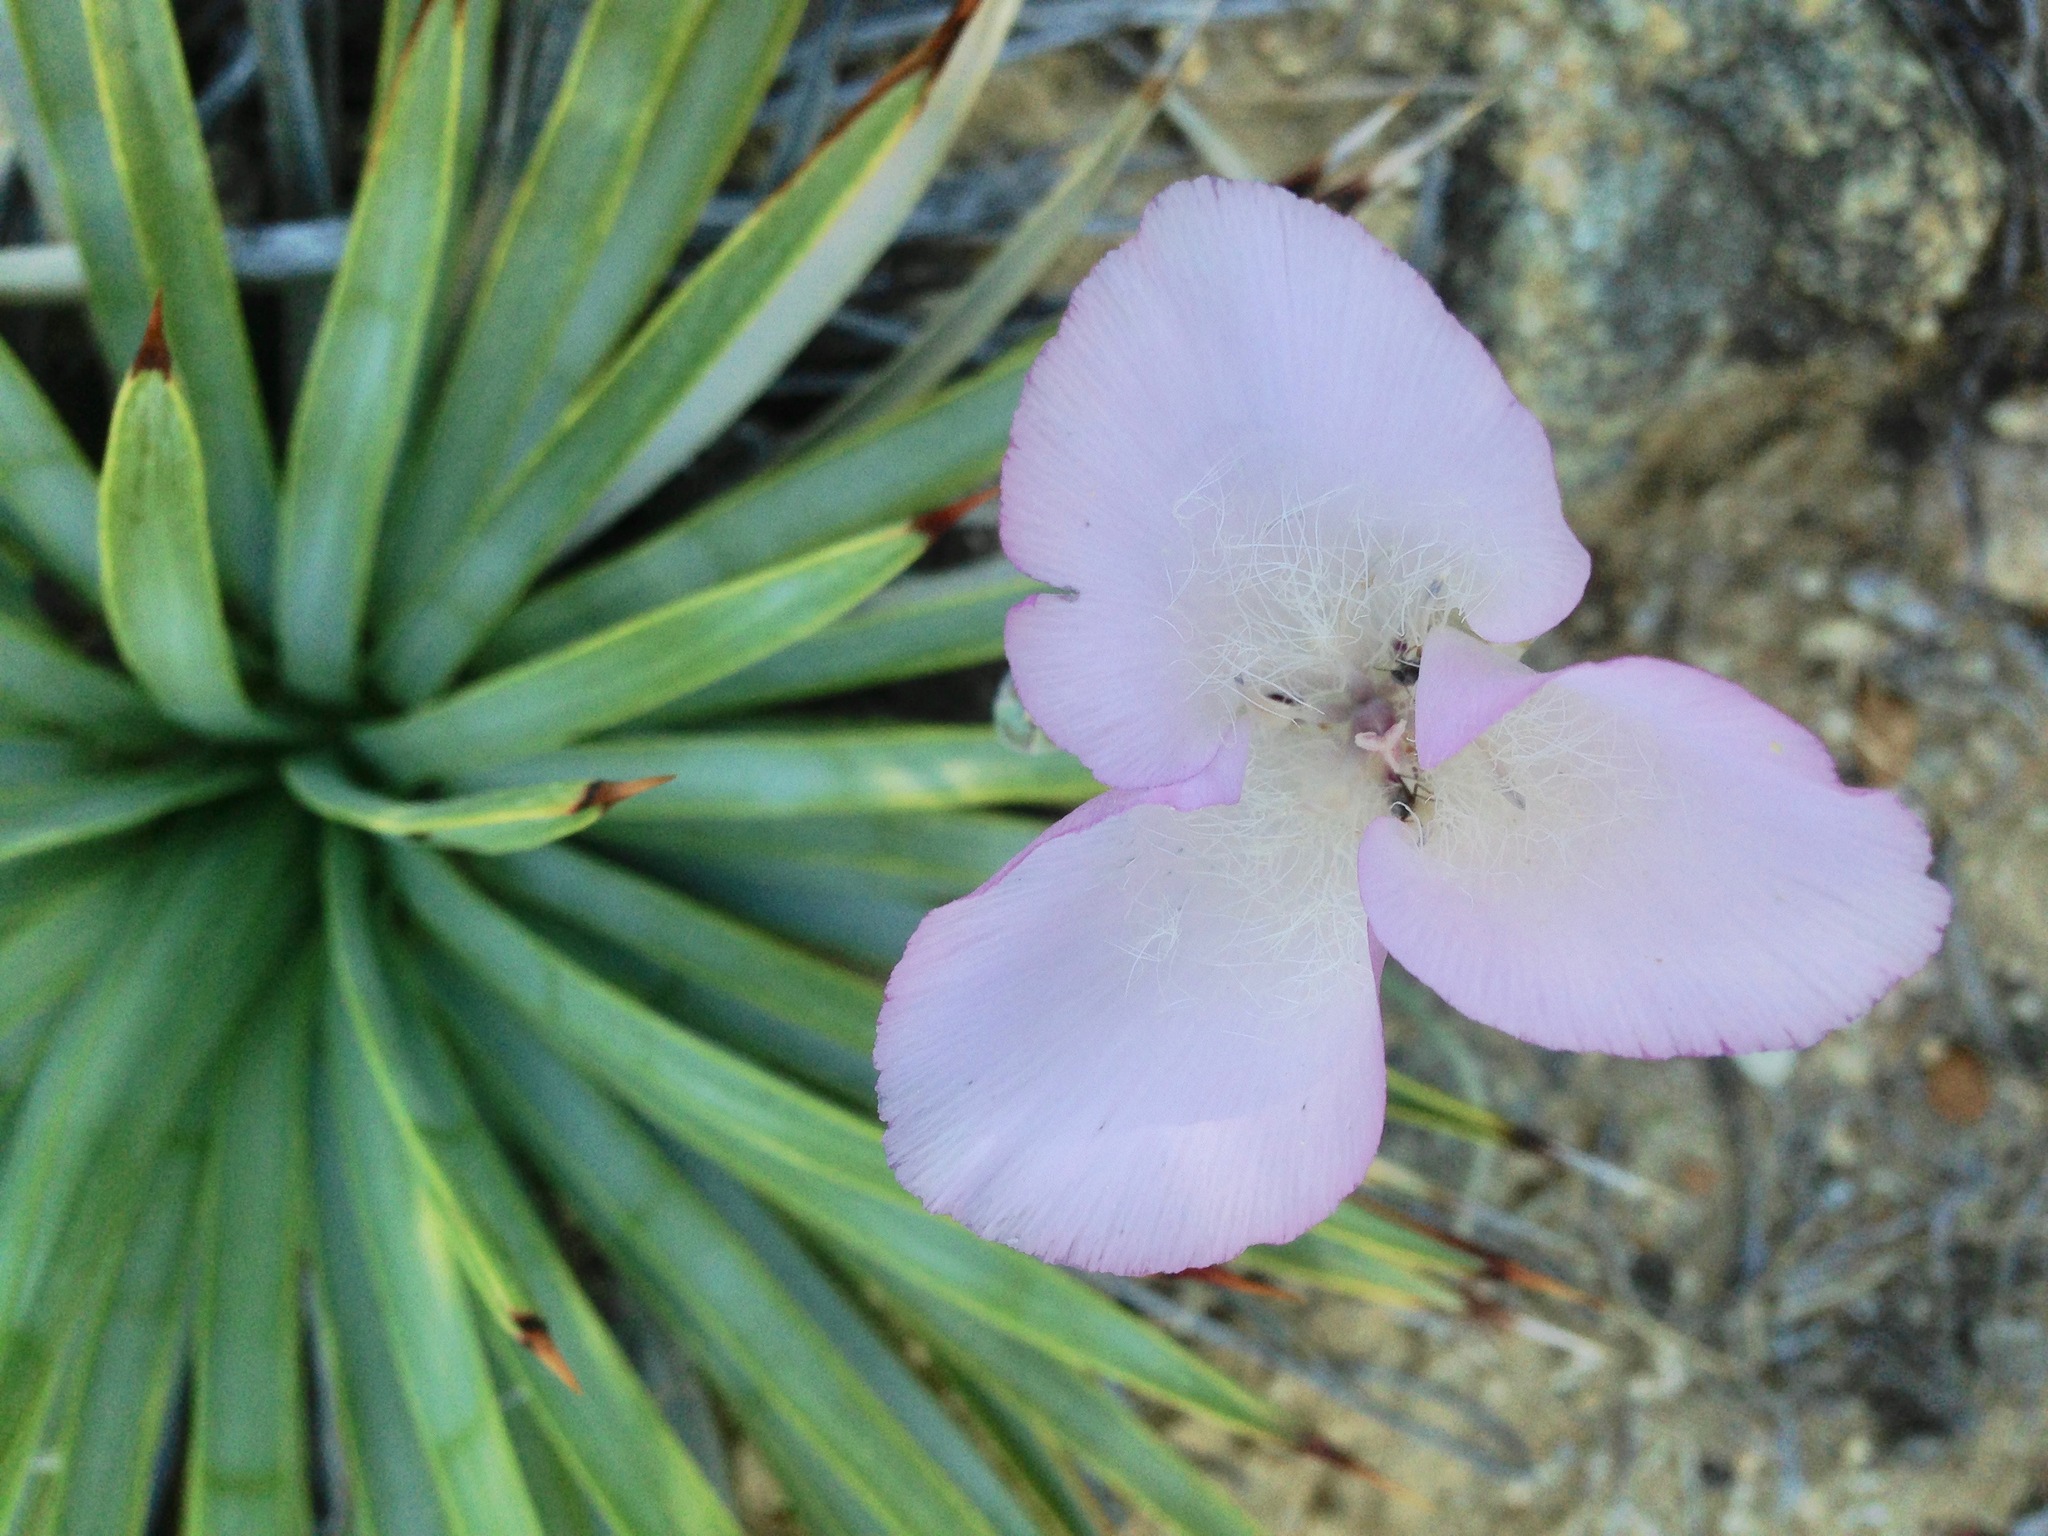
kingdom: Plantae
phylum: Tracheophyta
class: Liliopsida
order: Liliales
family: Liliaceae
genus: Calochortus
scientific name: Calochortus splendens
